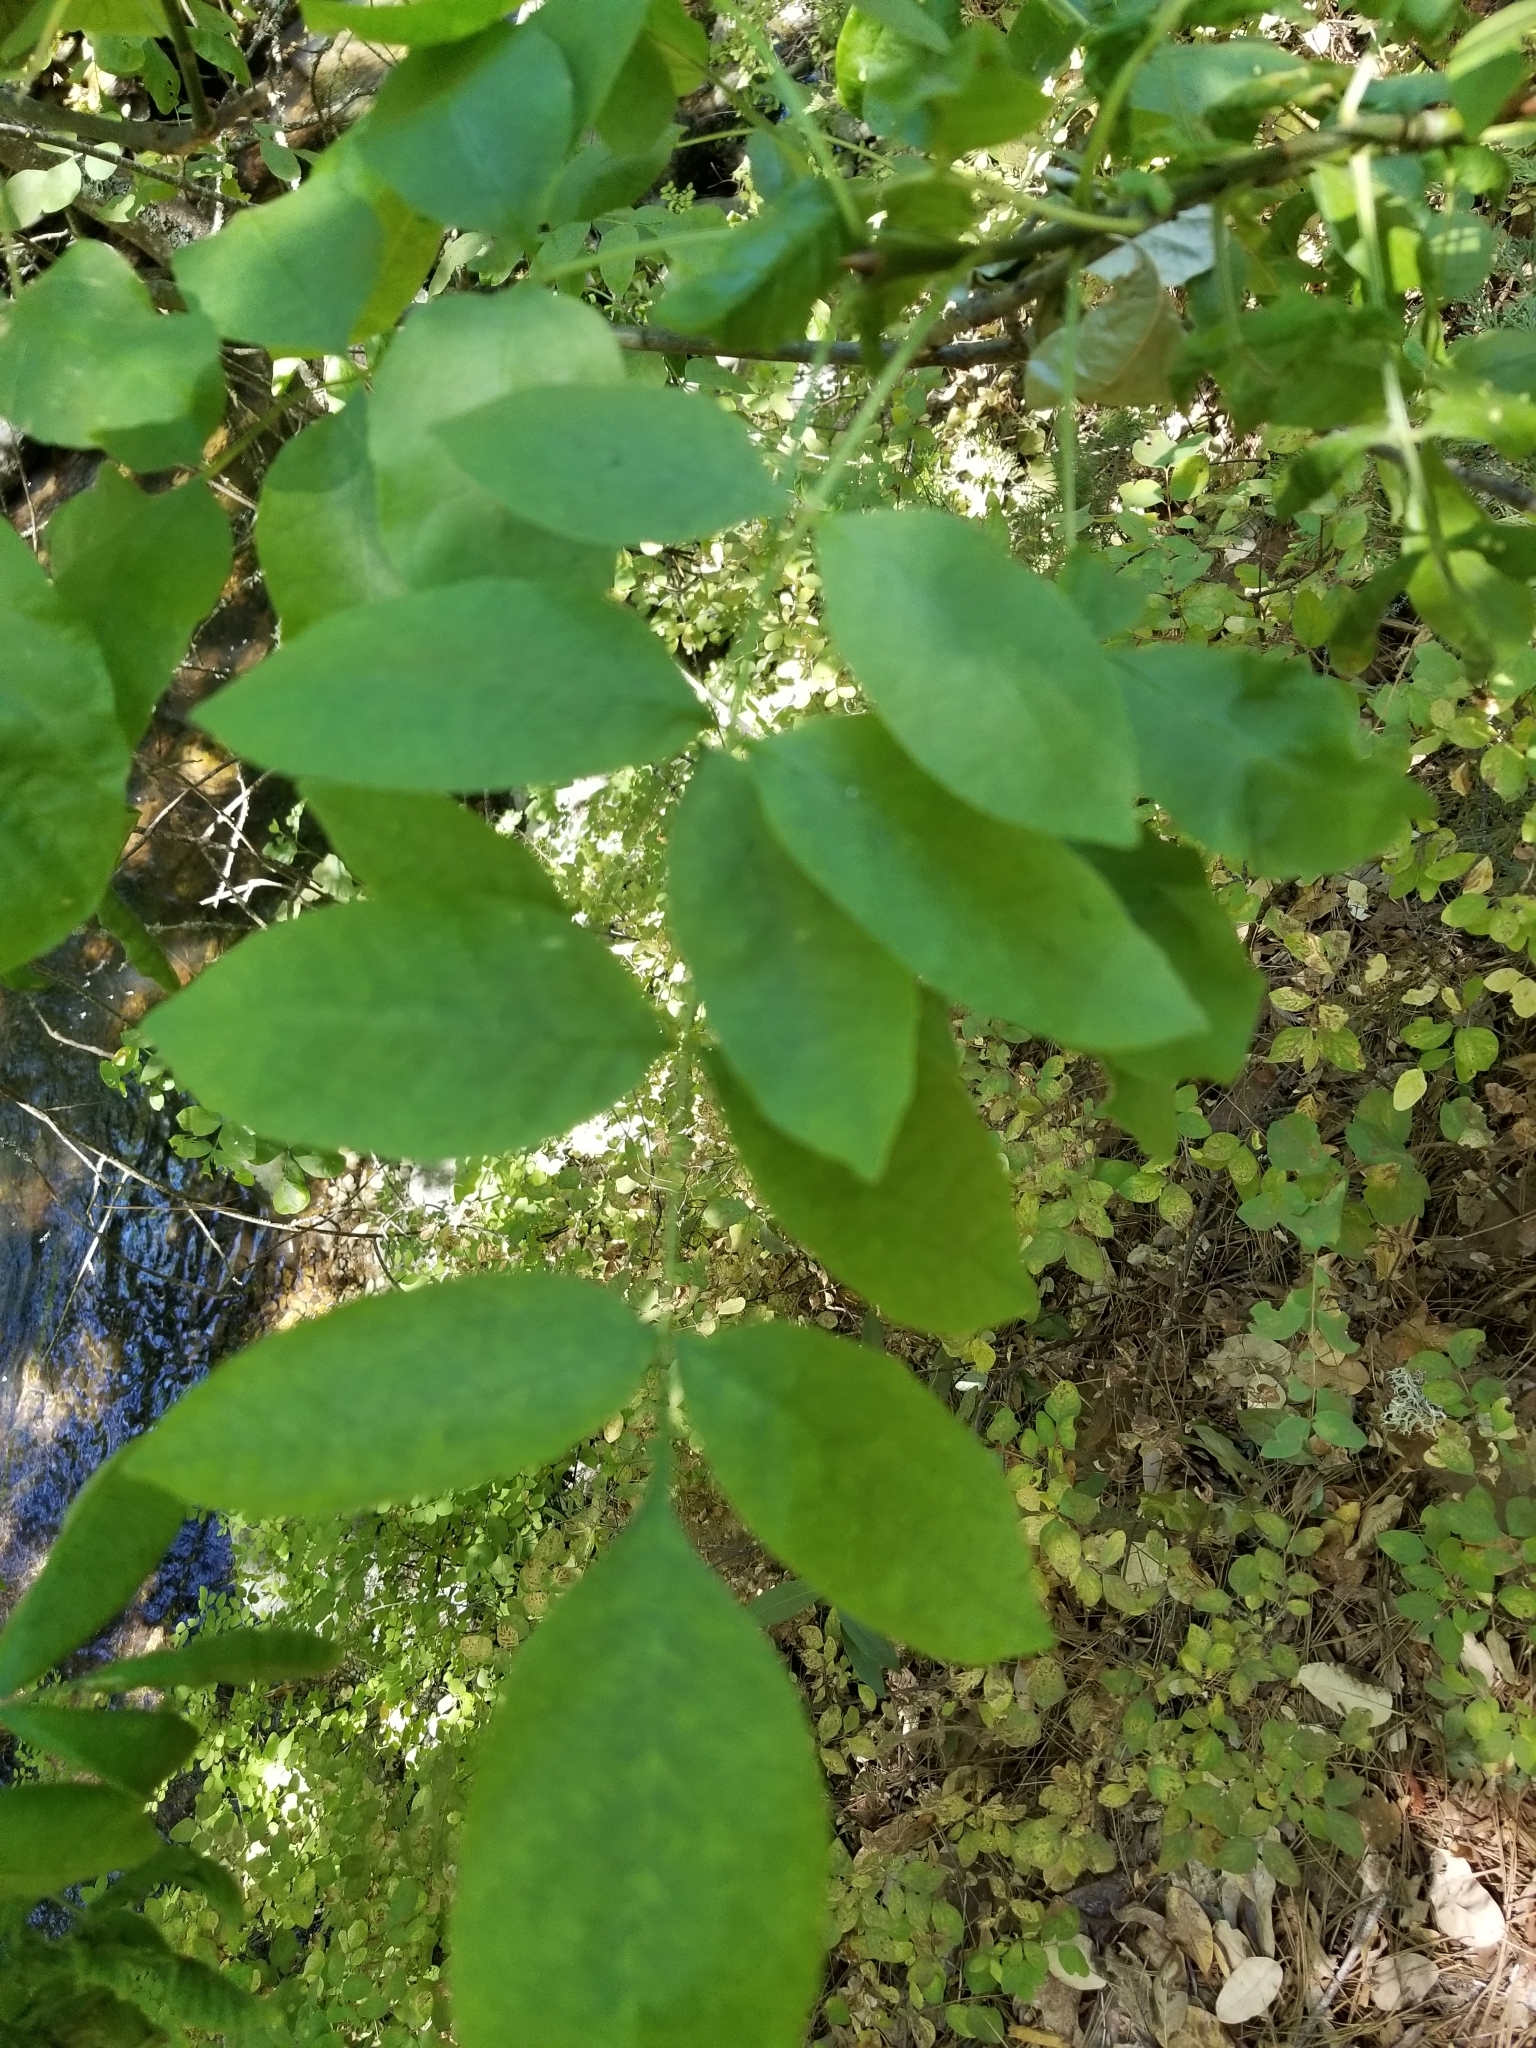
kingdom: Plantae
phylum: Tracheophyta
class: Magnoliopsida
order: Lamiales
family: Oleaceae
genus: Fraxinus
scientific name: Fraxinus latifolia
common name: Oregon ash
